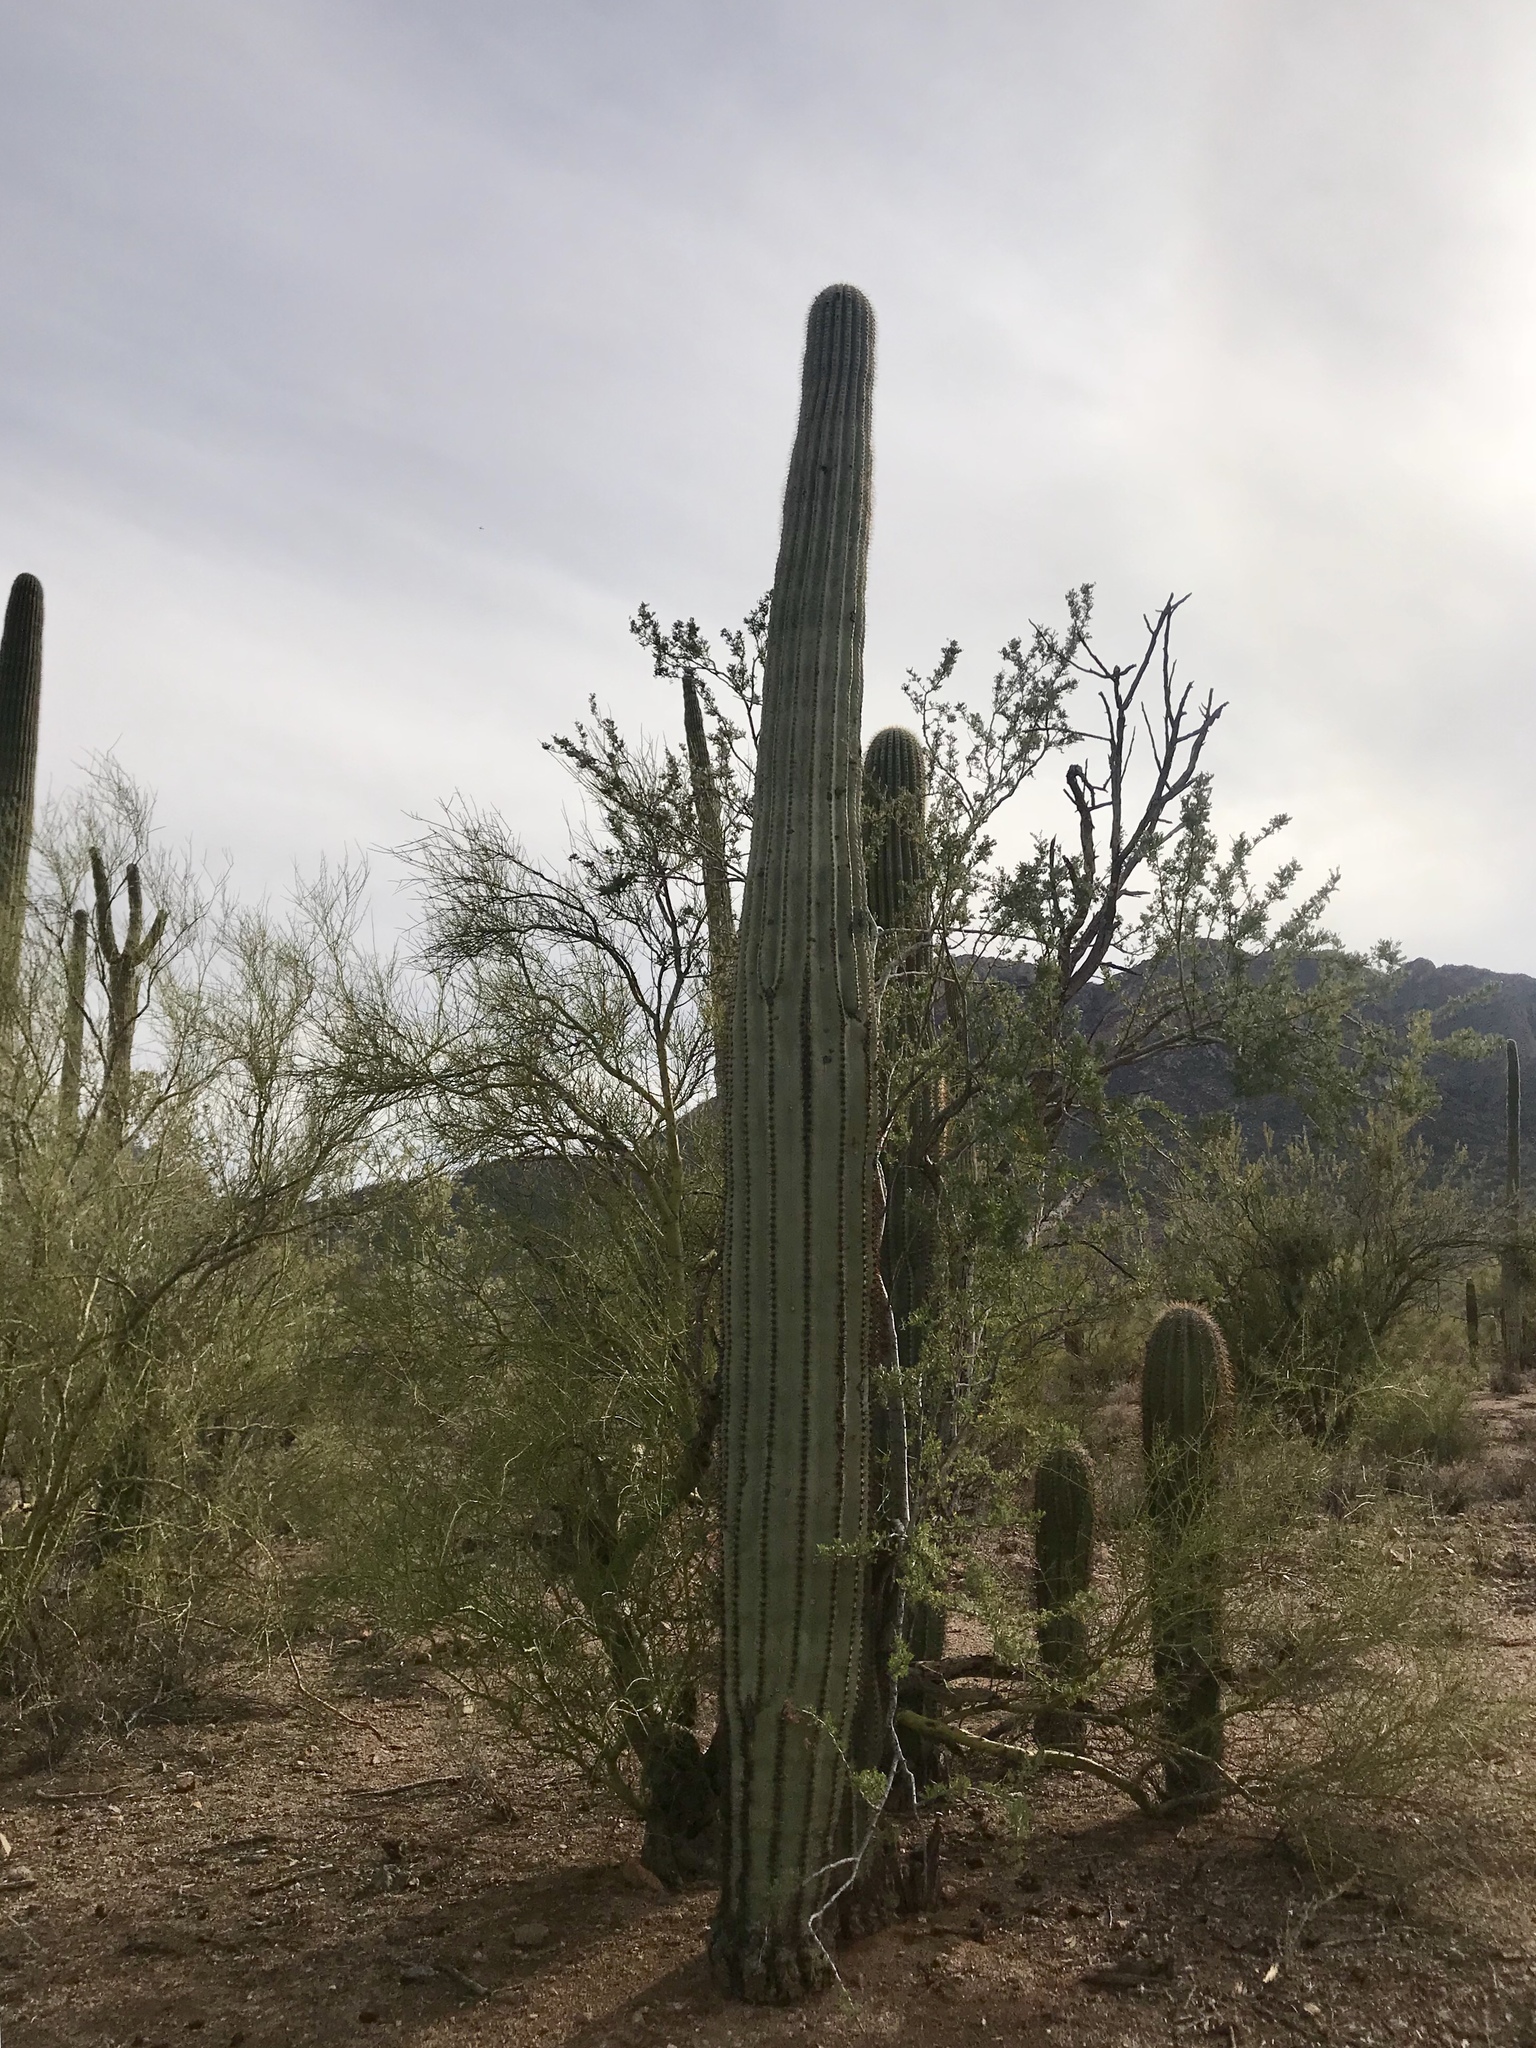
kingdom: Plantae
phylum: Tracheophyta
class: Magnoliopsida
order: Caryophyllales
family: Cactaceae
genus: Carnegiea
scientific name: Carnegiea gigantea
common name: Saguaro
